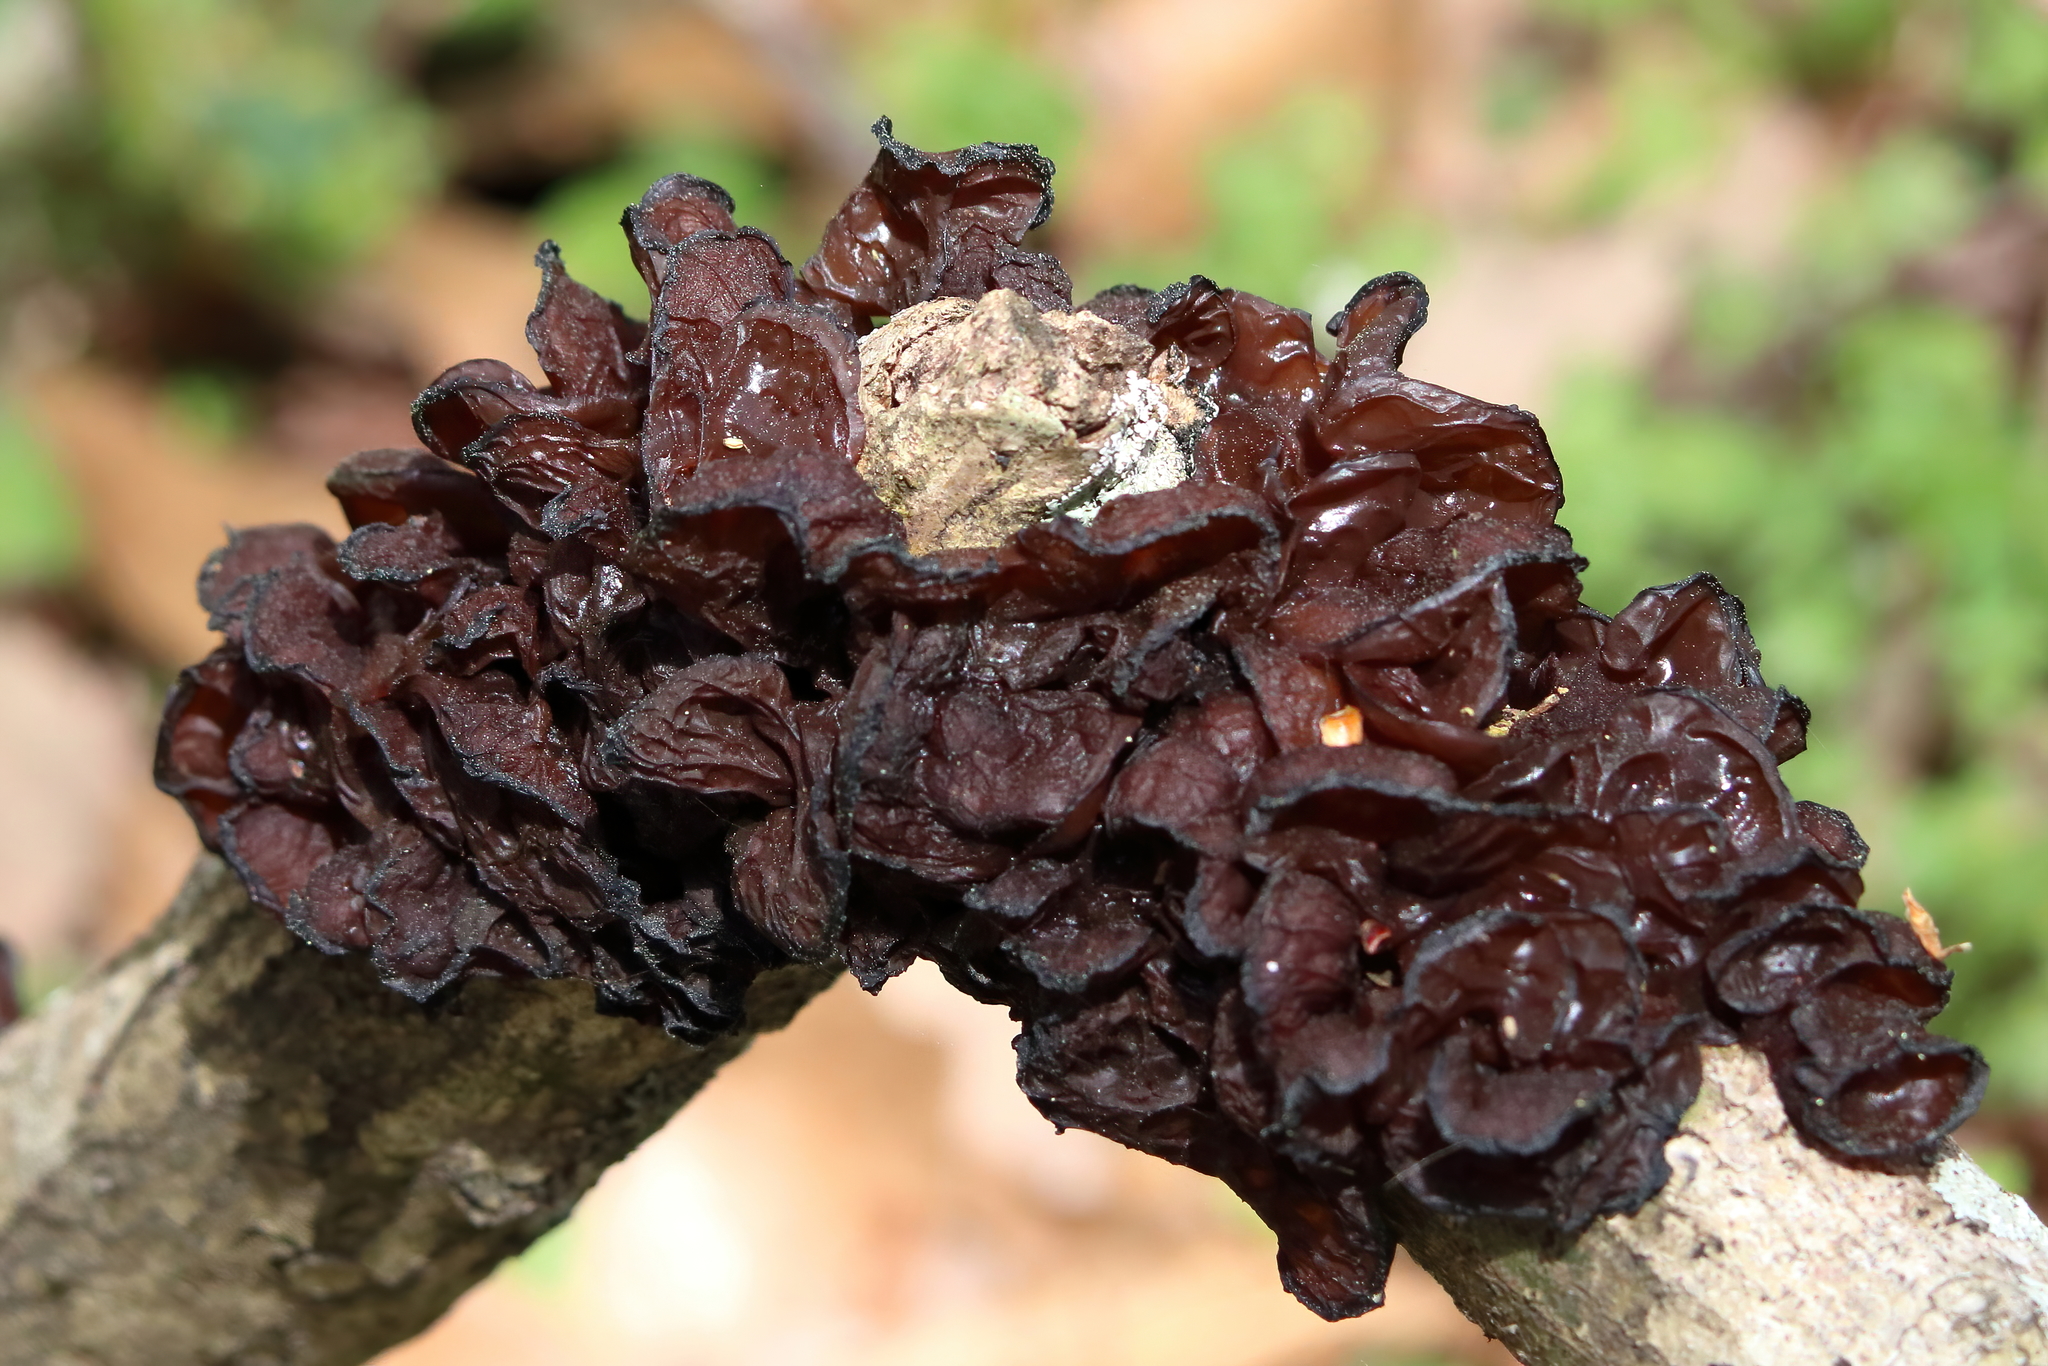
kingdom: Fungi
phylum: Basidiomycota
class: Tremellomycetes
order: Tremellales
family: Tremellaceae
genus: Phaeotremella
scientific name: Phaeotremella foliacea
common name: Leafy brain
